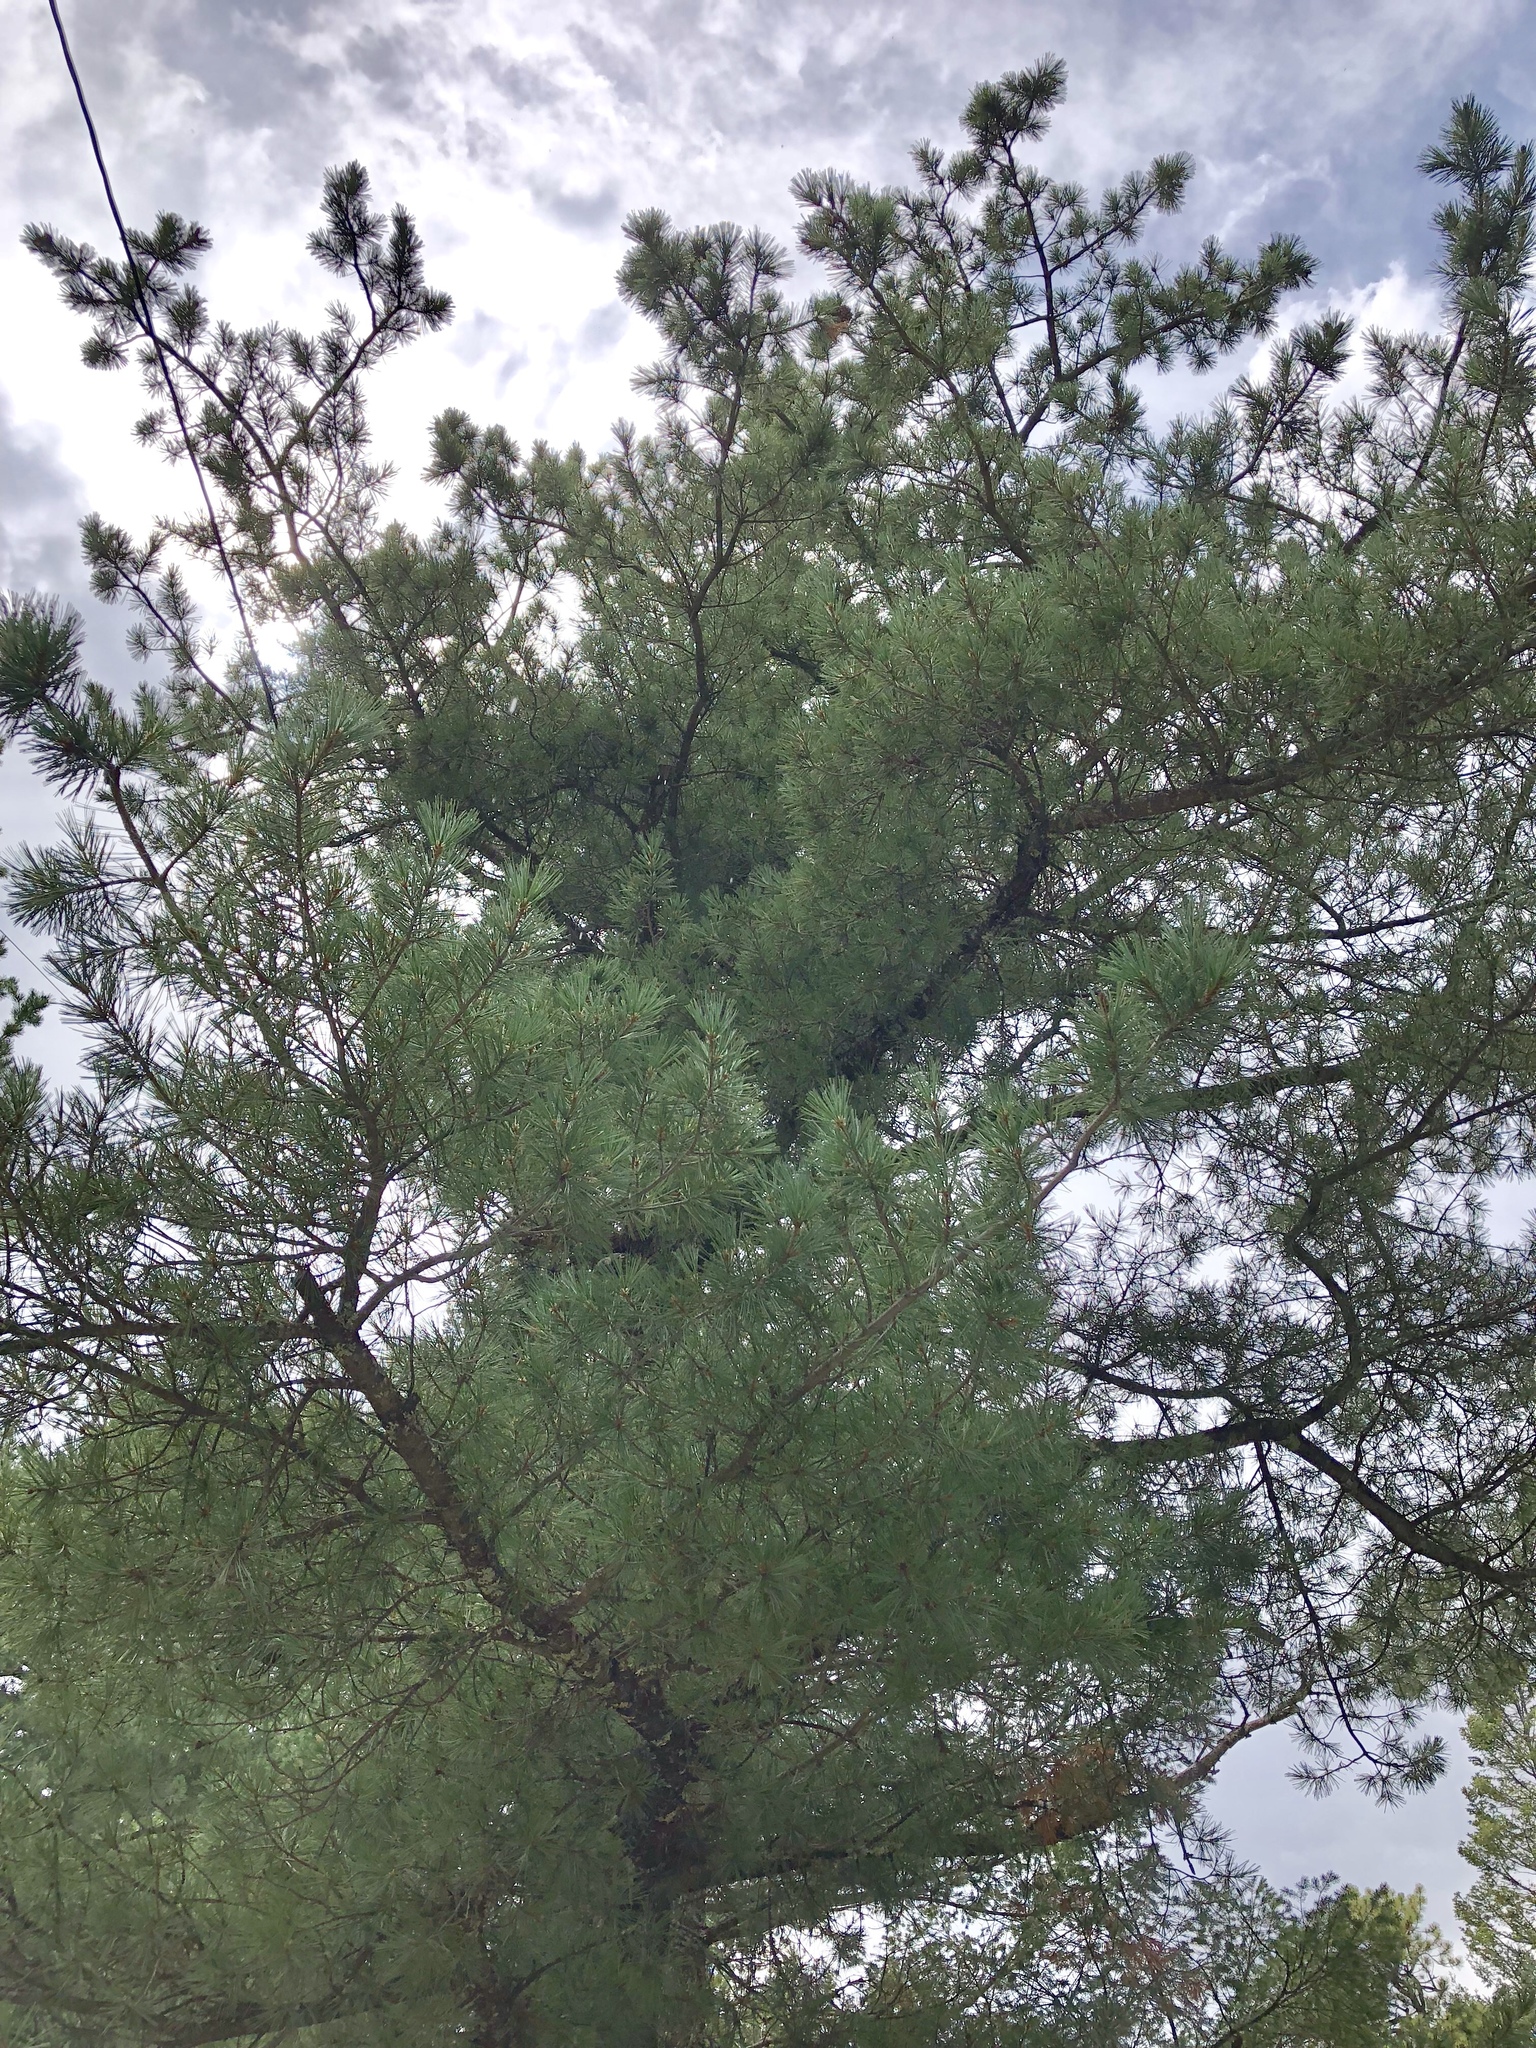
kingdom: Plantae
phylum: Tracheophyta
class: Pinopsida
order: Pinales
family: Pinaceae
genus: Pinus
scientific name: Pinus strobiformis
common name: Southwestern white pine
